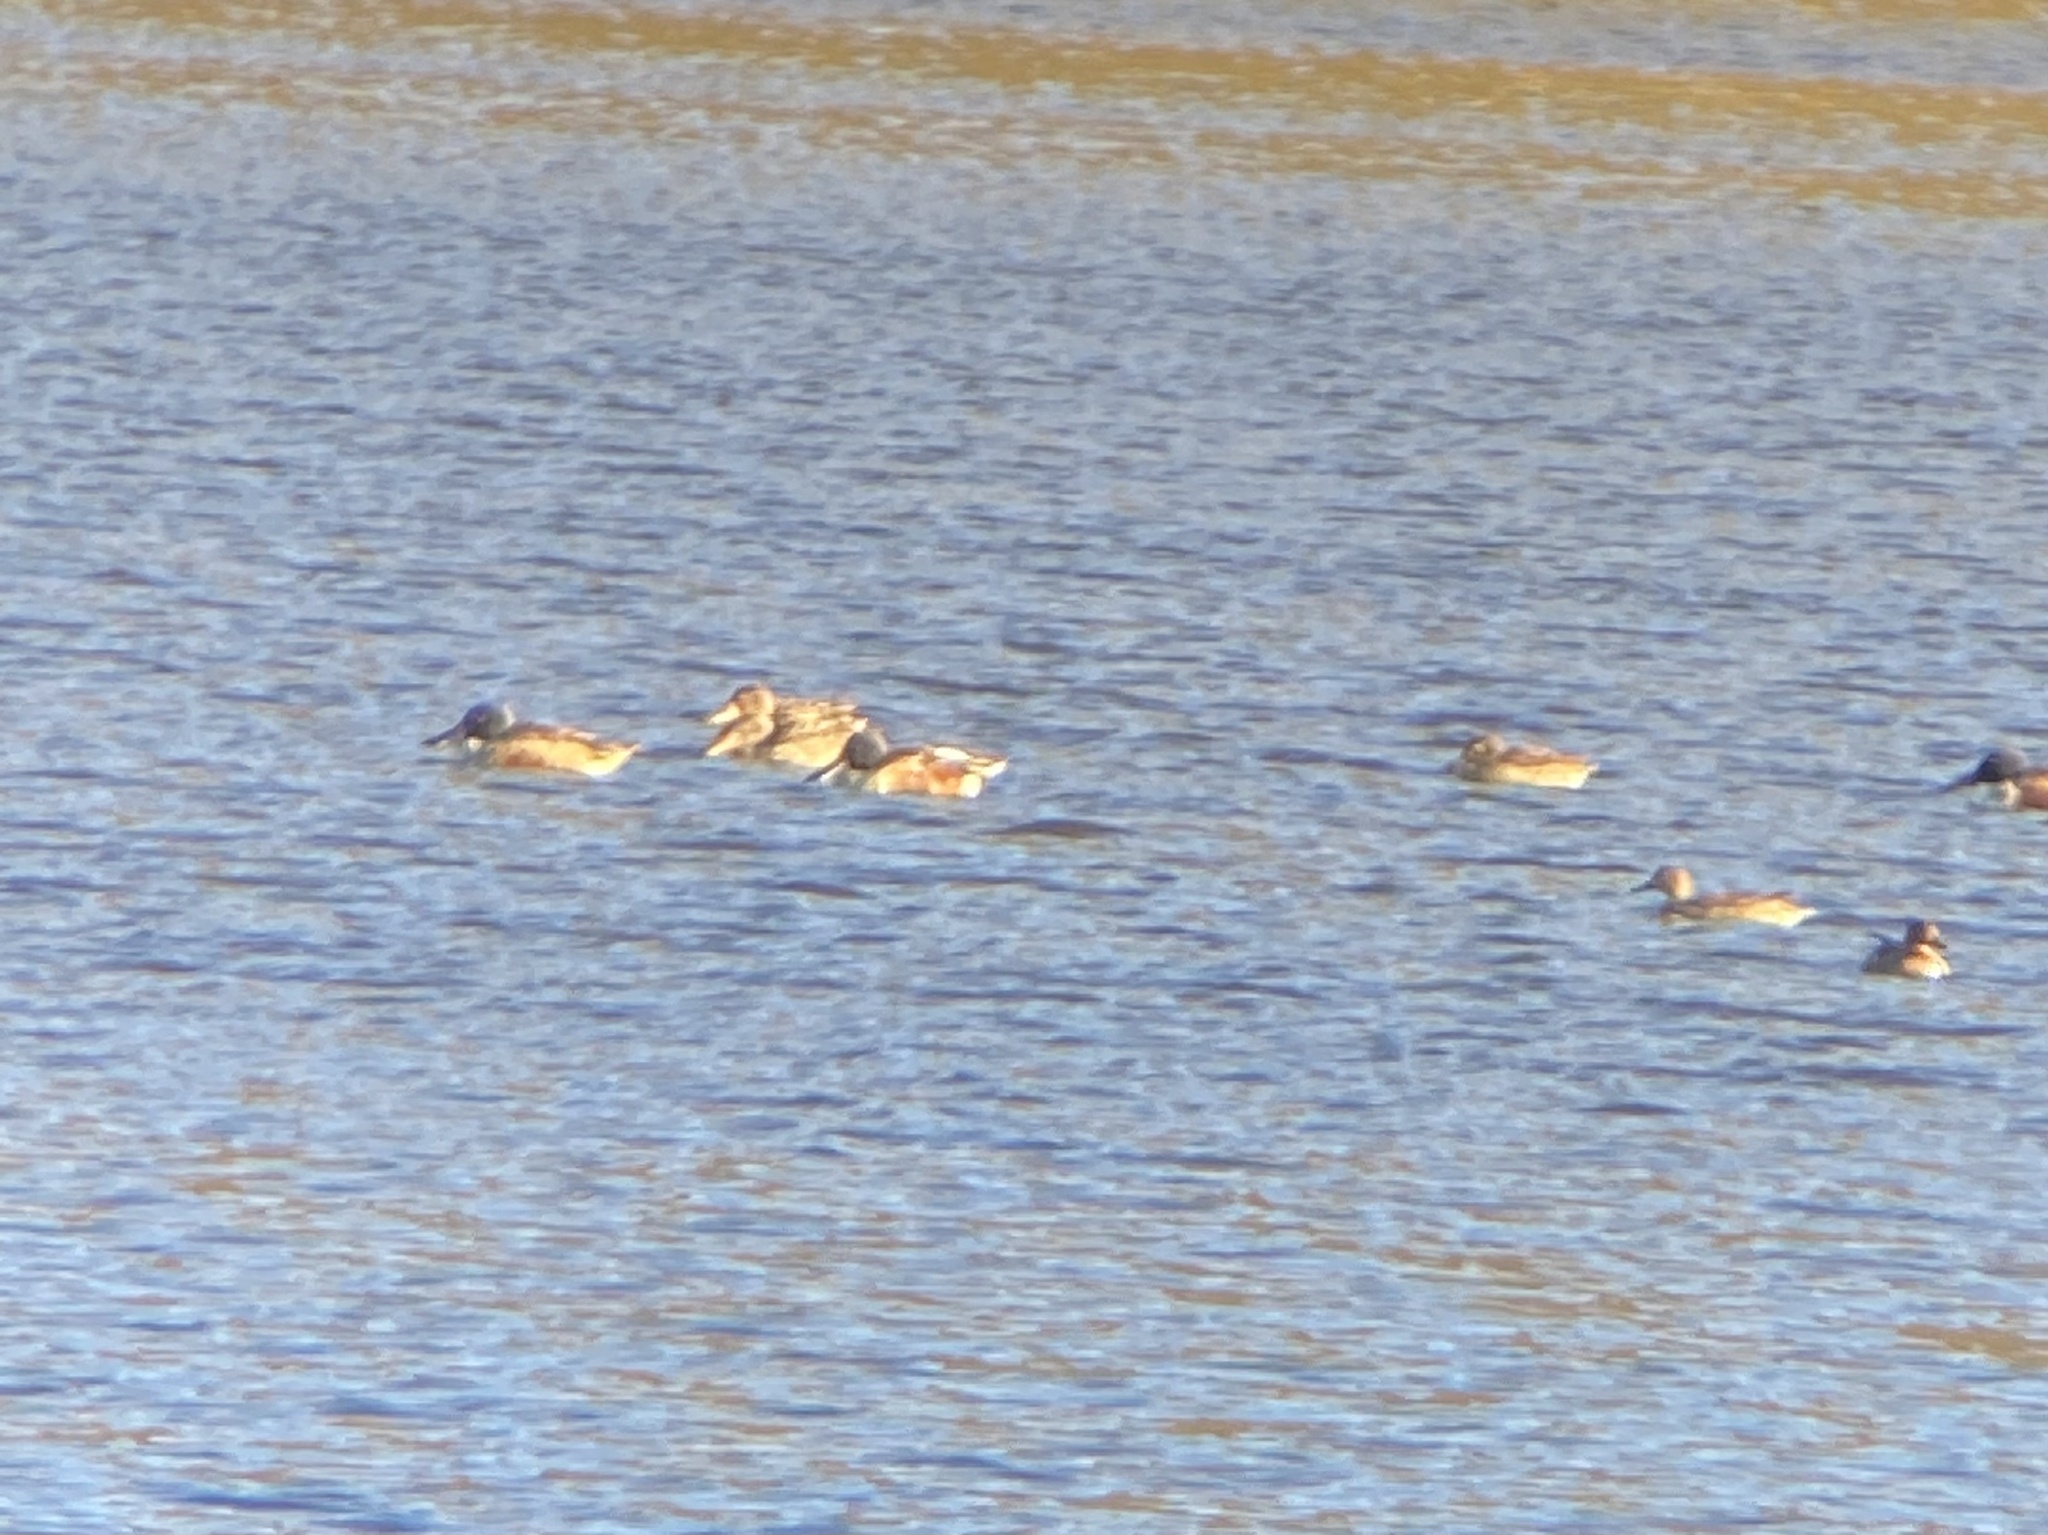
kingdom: Animalia
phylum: Chordata
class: Aves
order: Anseriformes
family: Anatidae
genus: Spatula
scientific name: Spatula clypeata
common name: Northern shoveler
